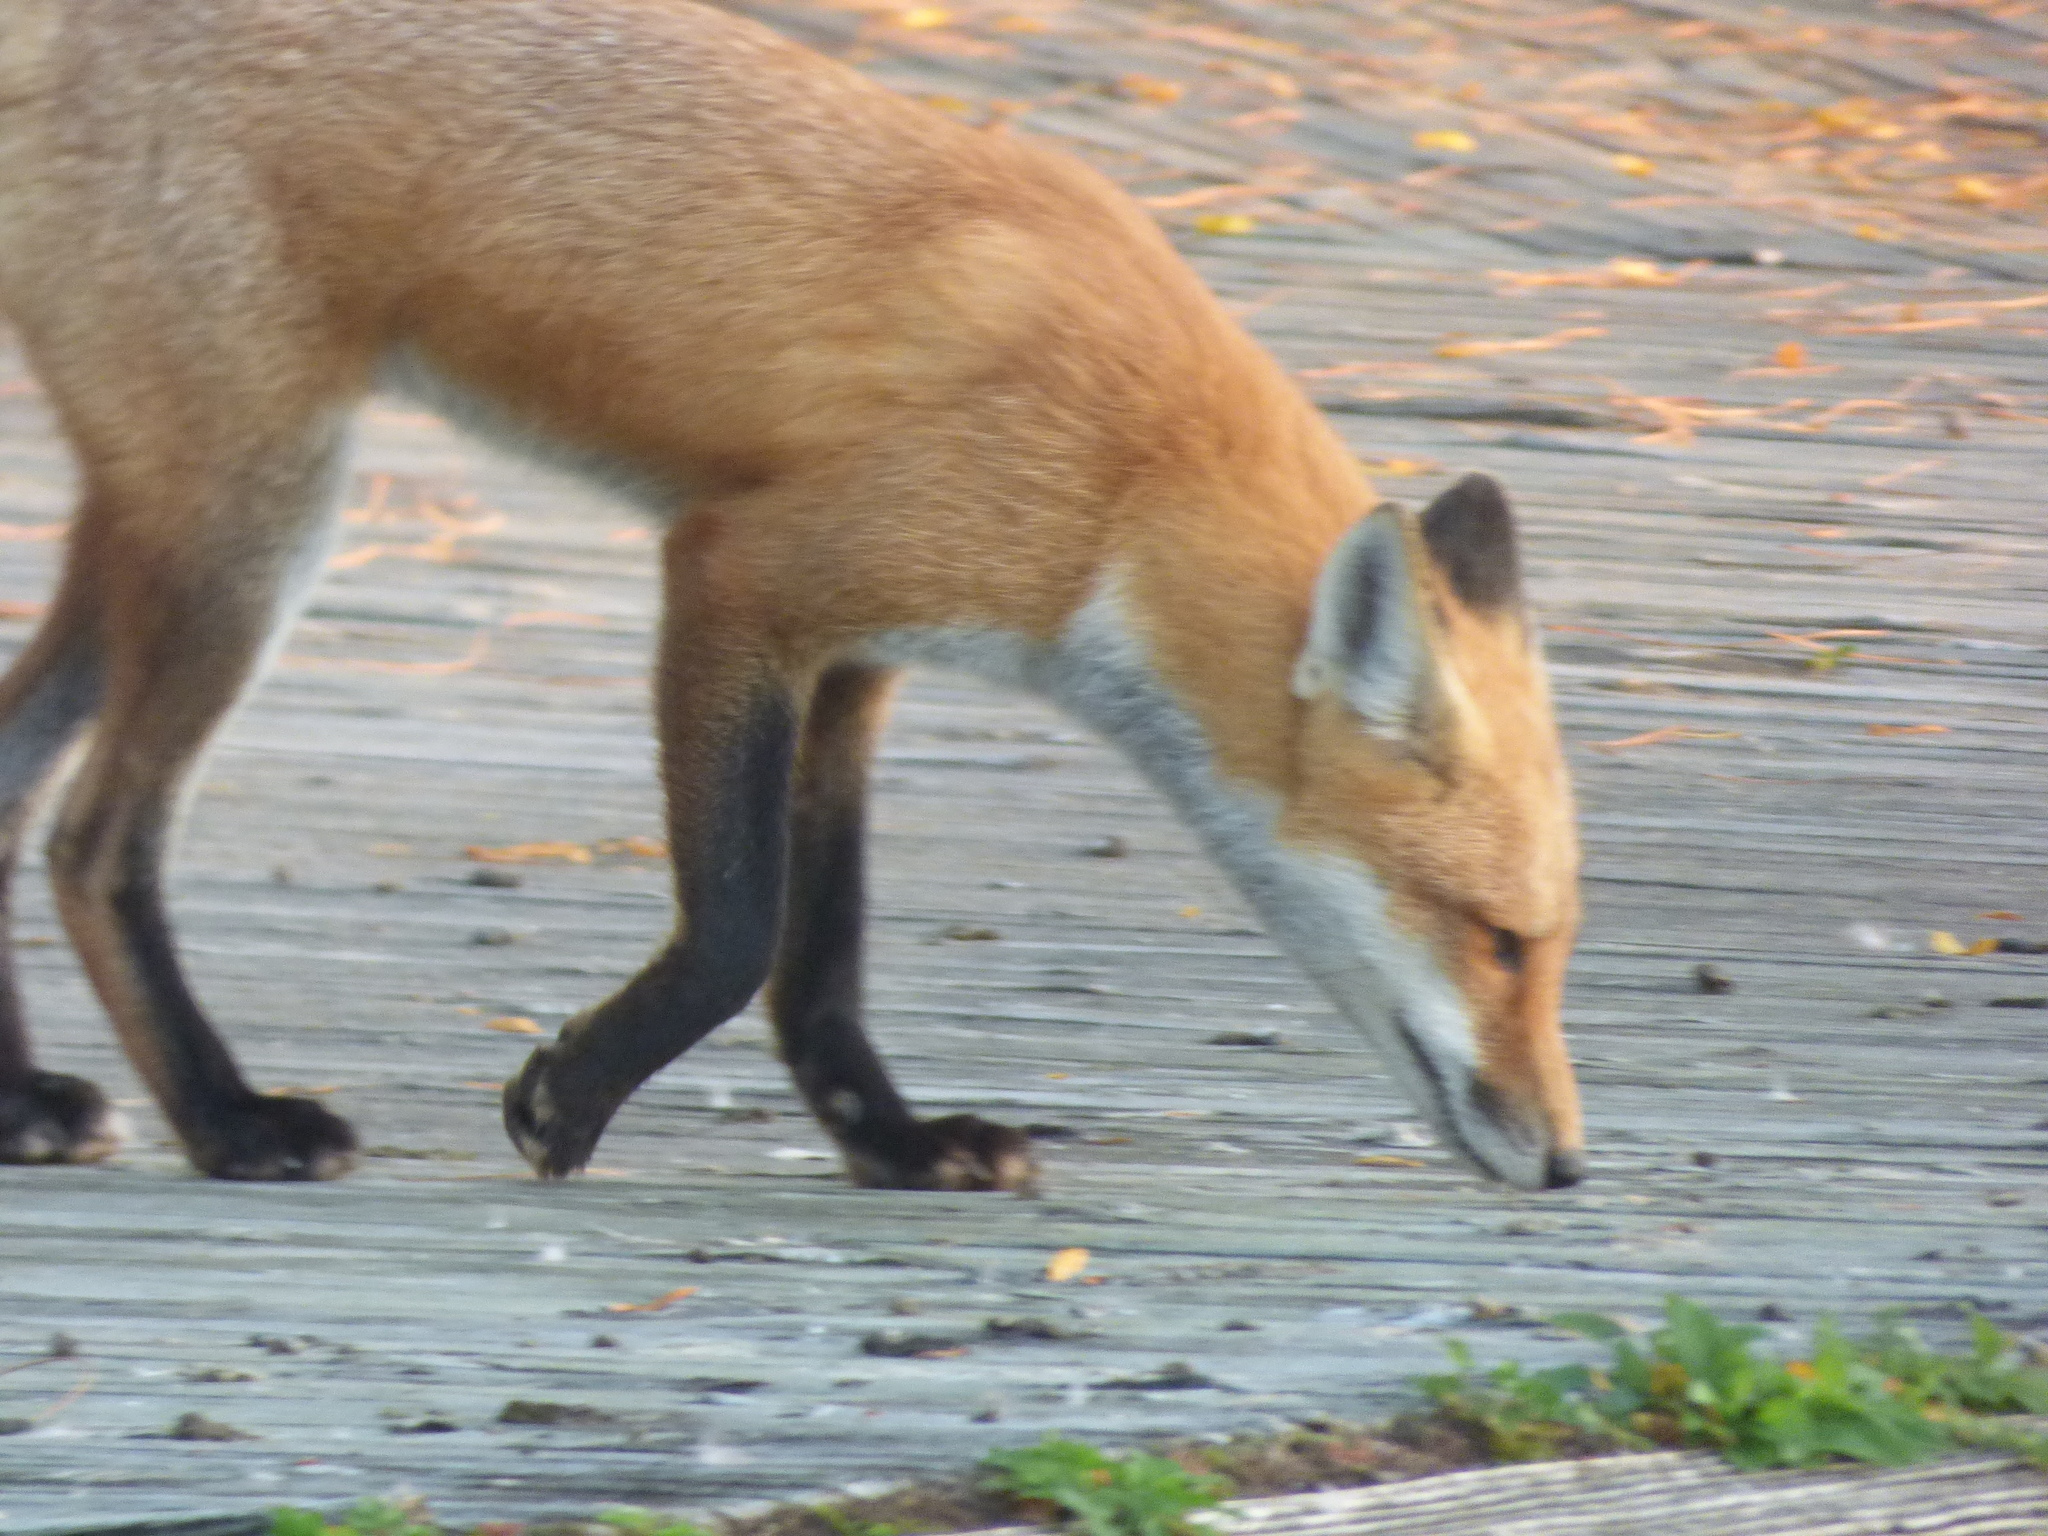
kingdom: Animalia
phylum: Chordata
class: Mammalia
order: Carnivora
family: Canidae
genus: Vulpes
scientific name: Vulpes vulpes
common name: Red fox
